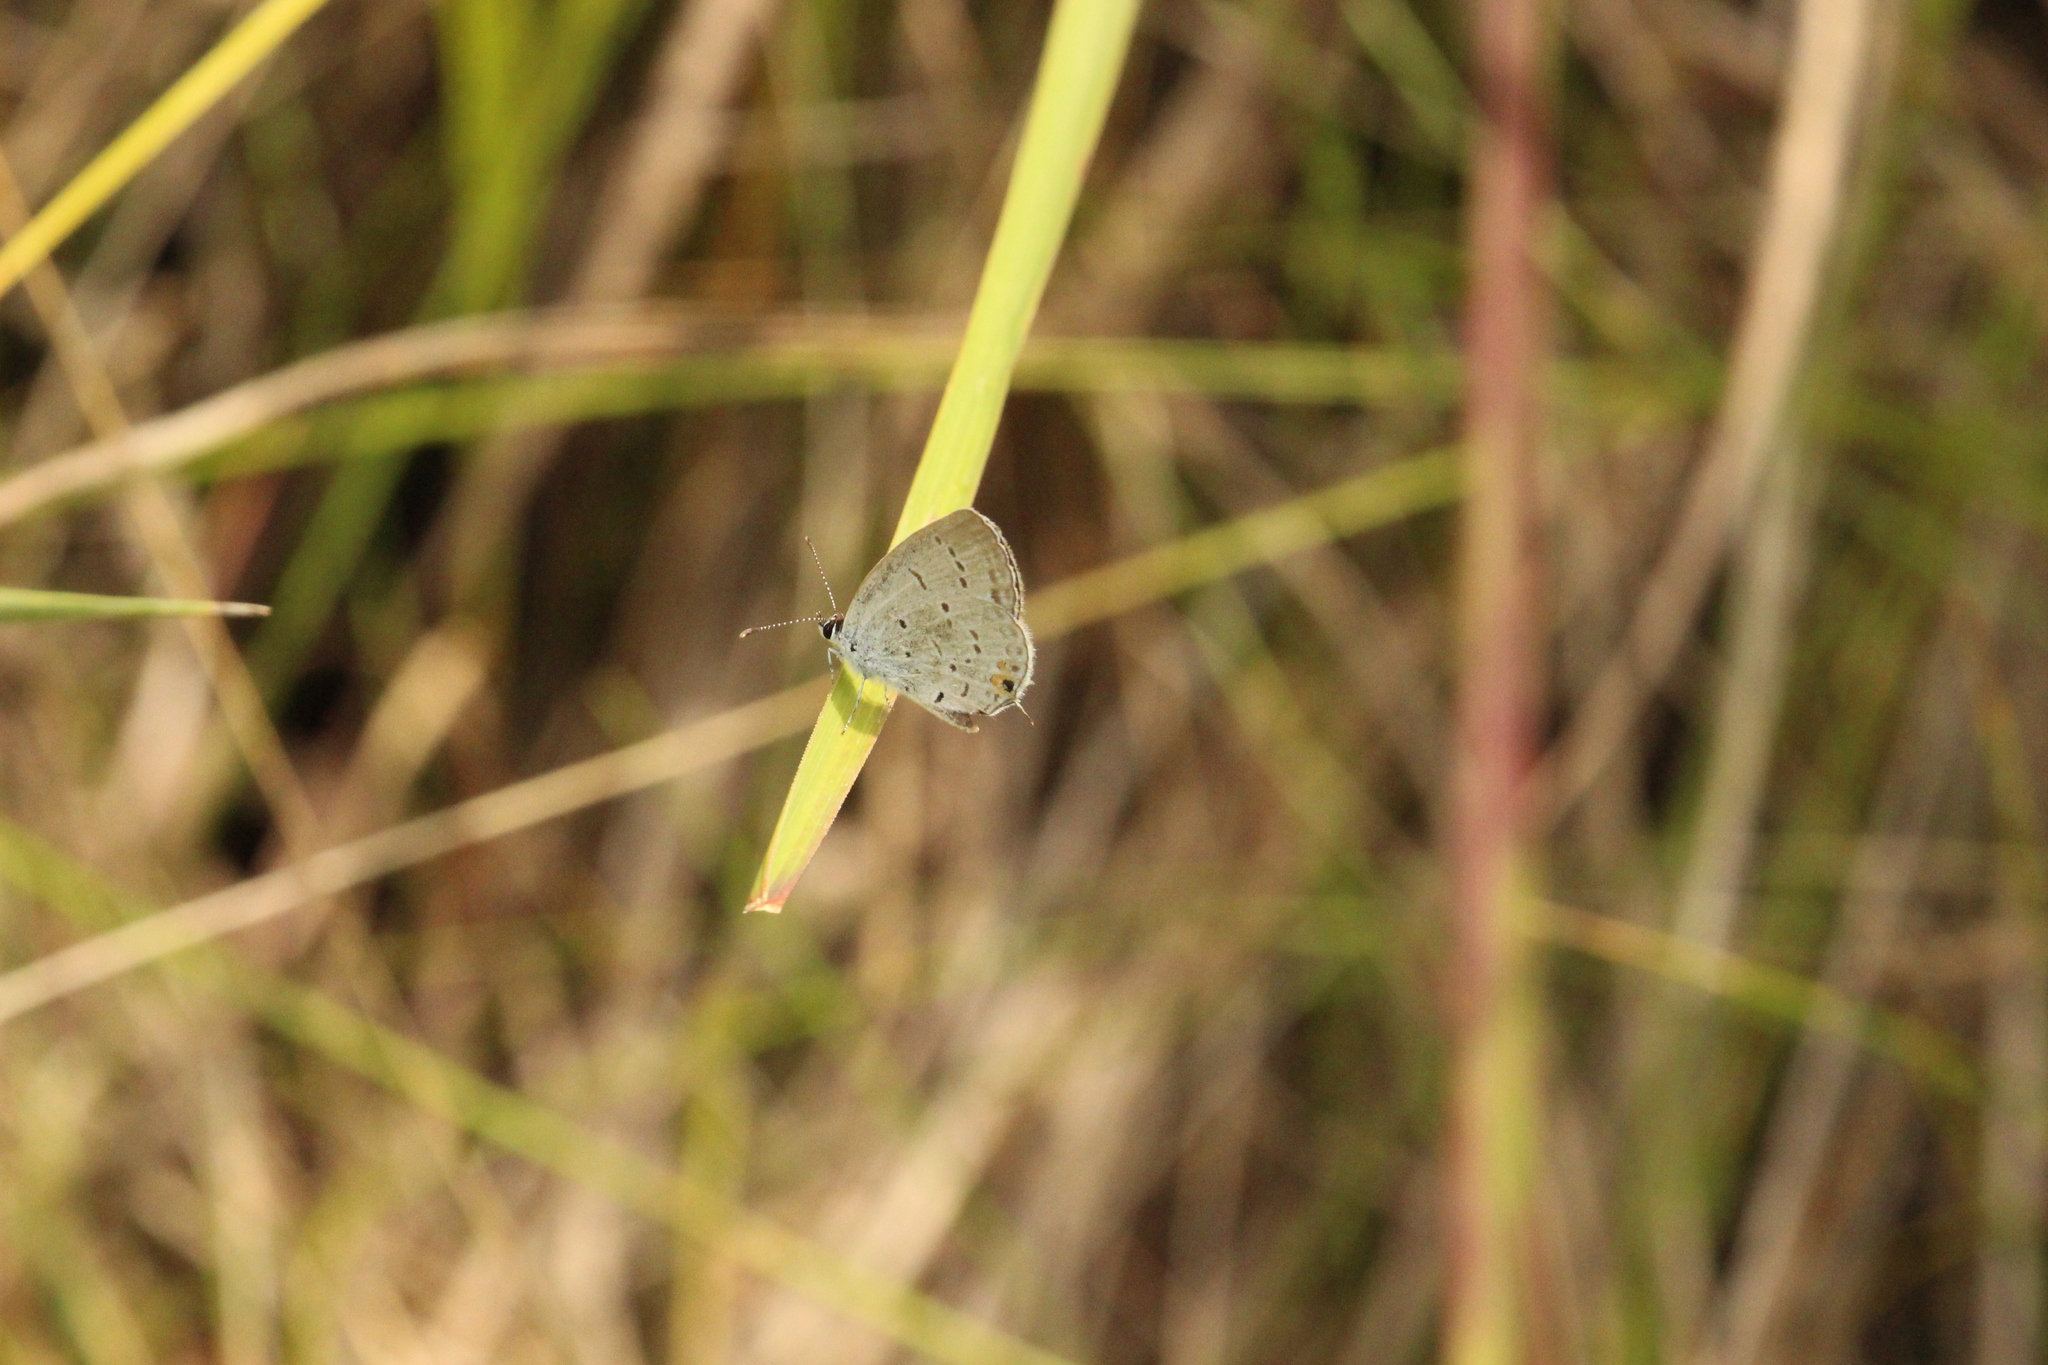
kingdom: Animalia
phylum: Arthropoda
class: Insecta
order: Lepidoptera
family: Lycaenidae
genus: Elkalyce
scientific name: Elkalyce comyntas
